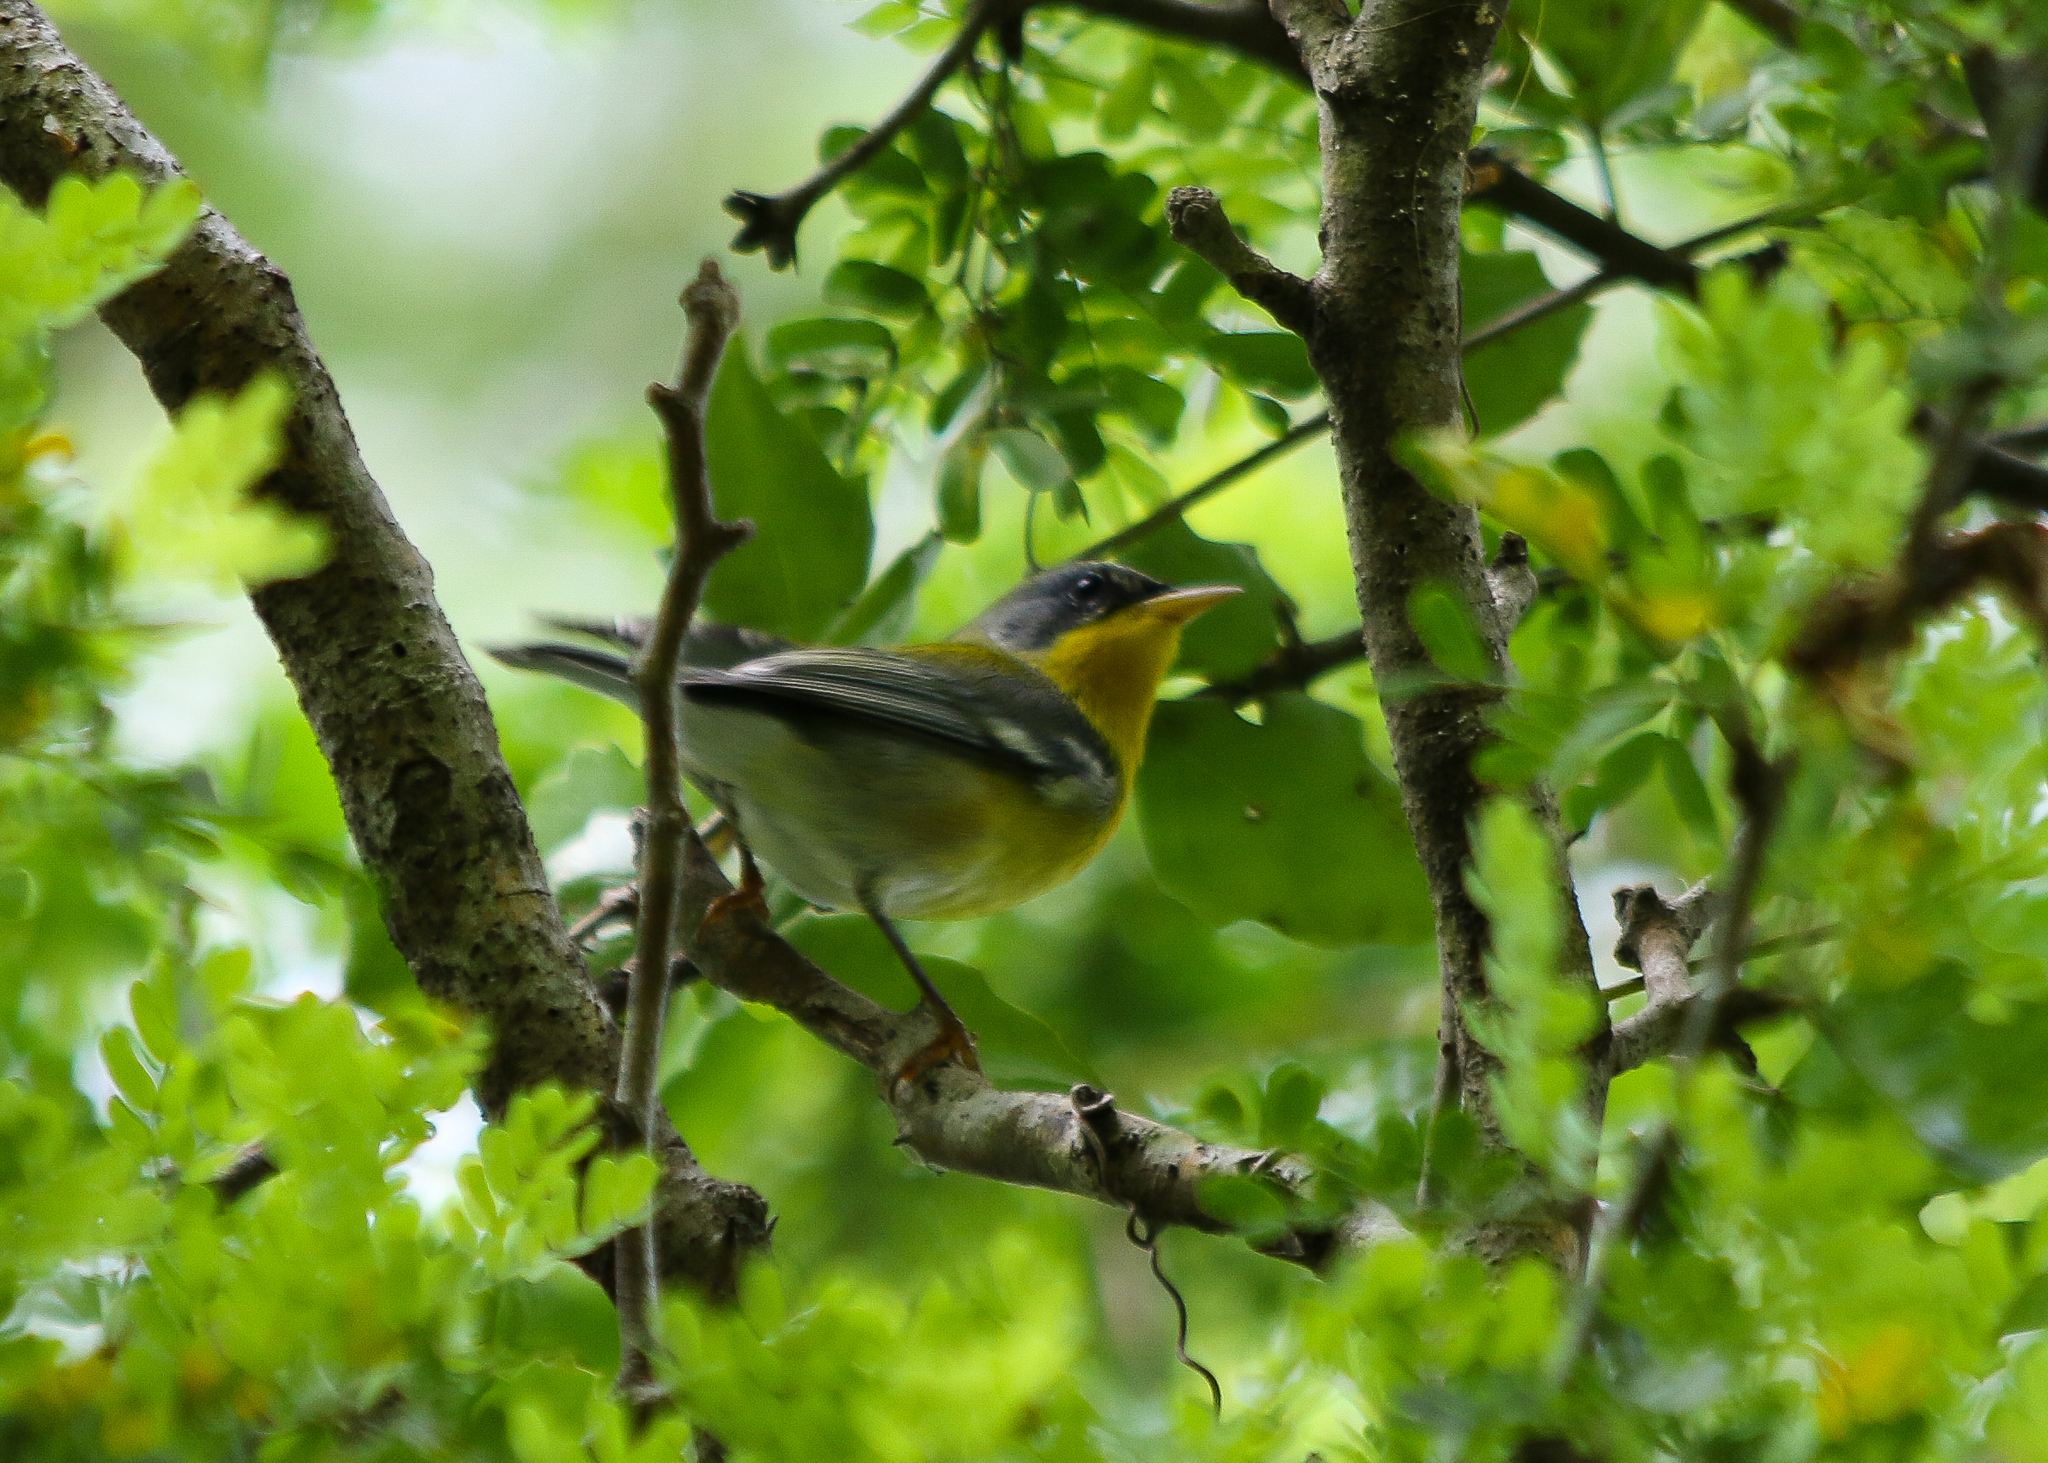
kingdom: Animalia
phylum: Chordata
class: Aves
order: Passeriformes
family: Parulidae
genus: Setophaga
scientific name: Setophaga pitiayumi
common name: Tropical parula
